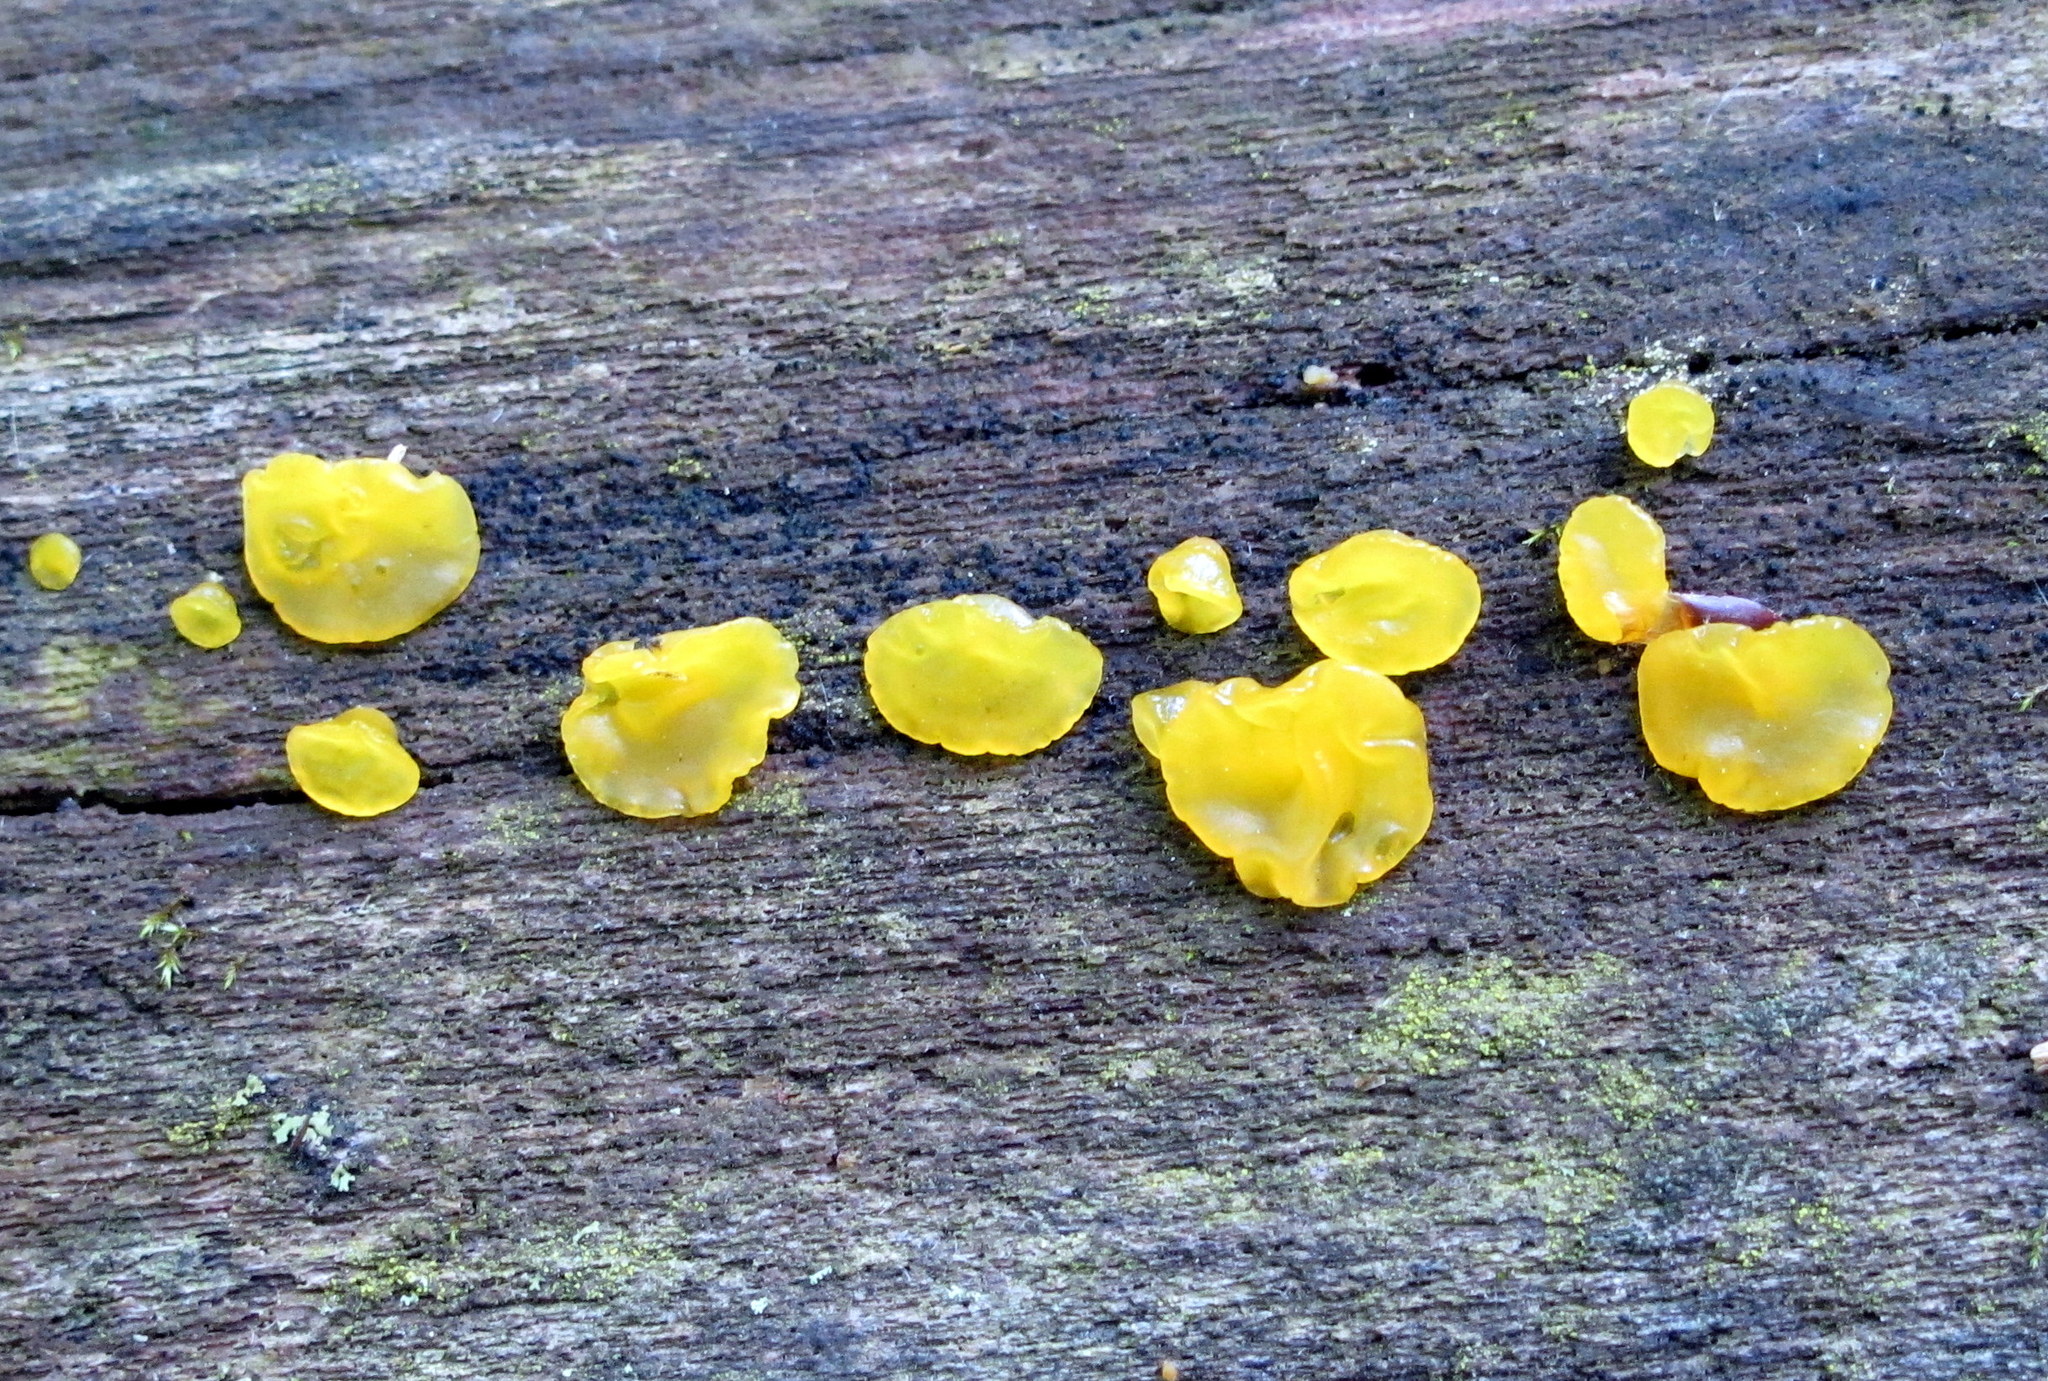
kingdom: Fungi
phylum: Basidiomycota
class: Tremellomycetes
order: Tremellales
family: Tremellaceae
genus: Tremella
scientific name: Tremella mesenterica
